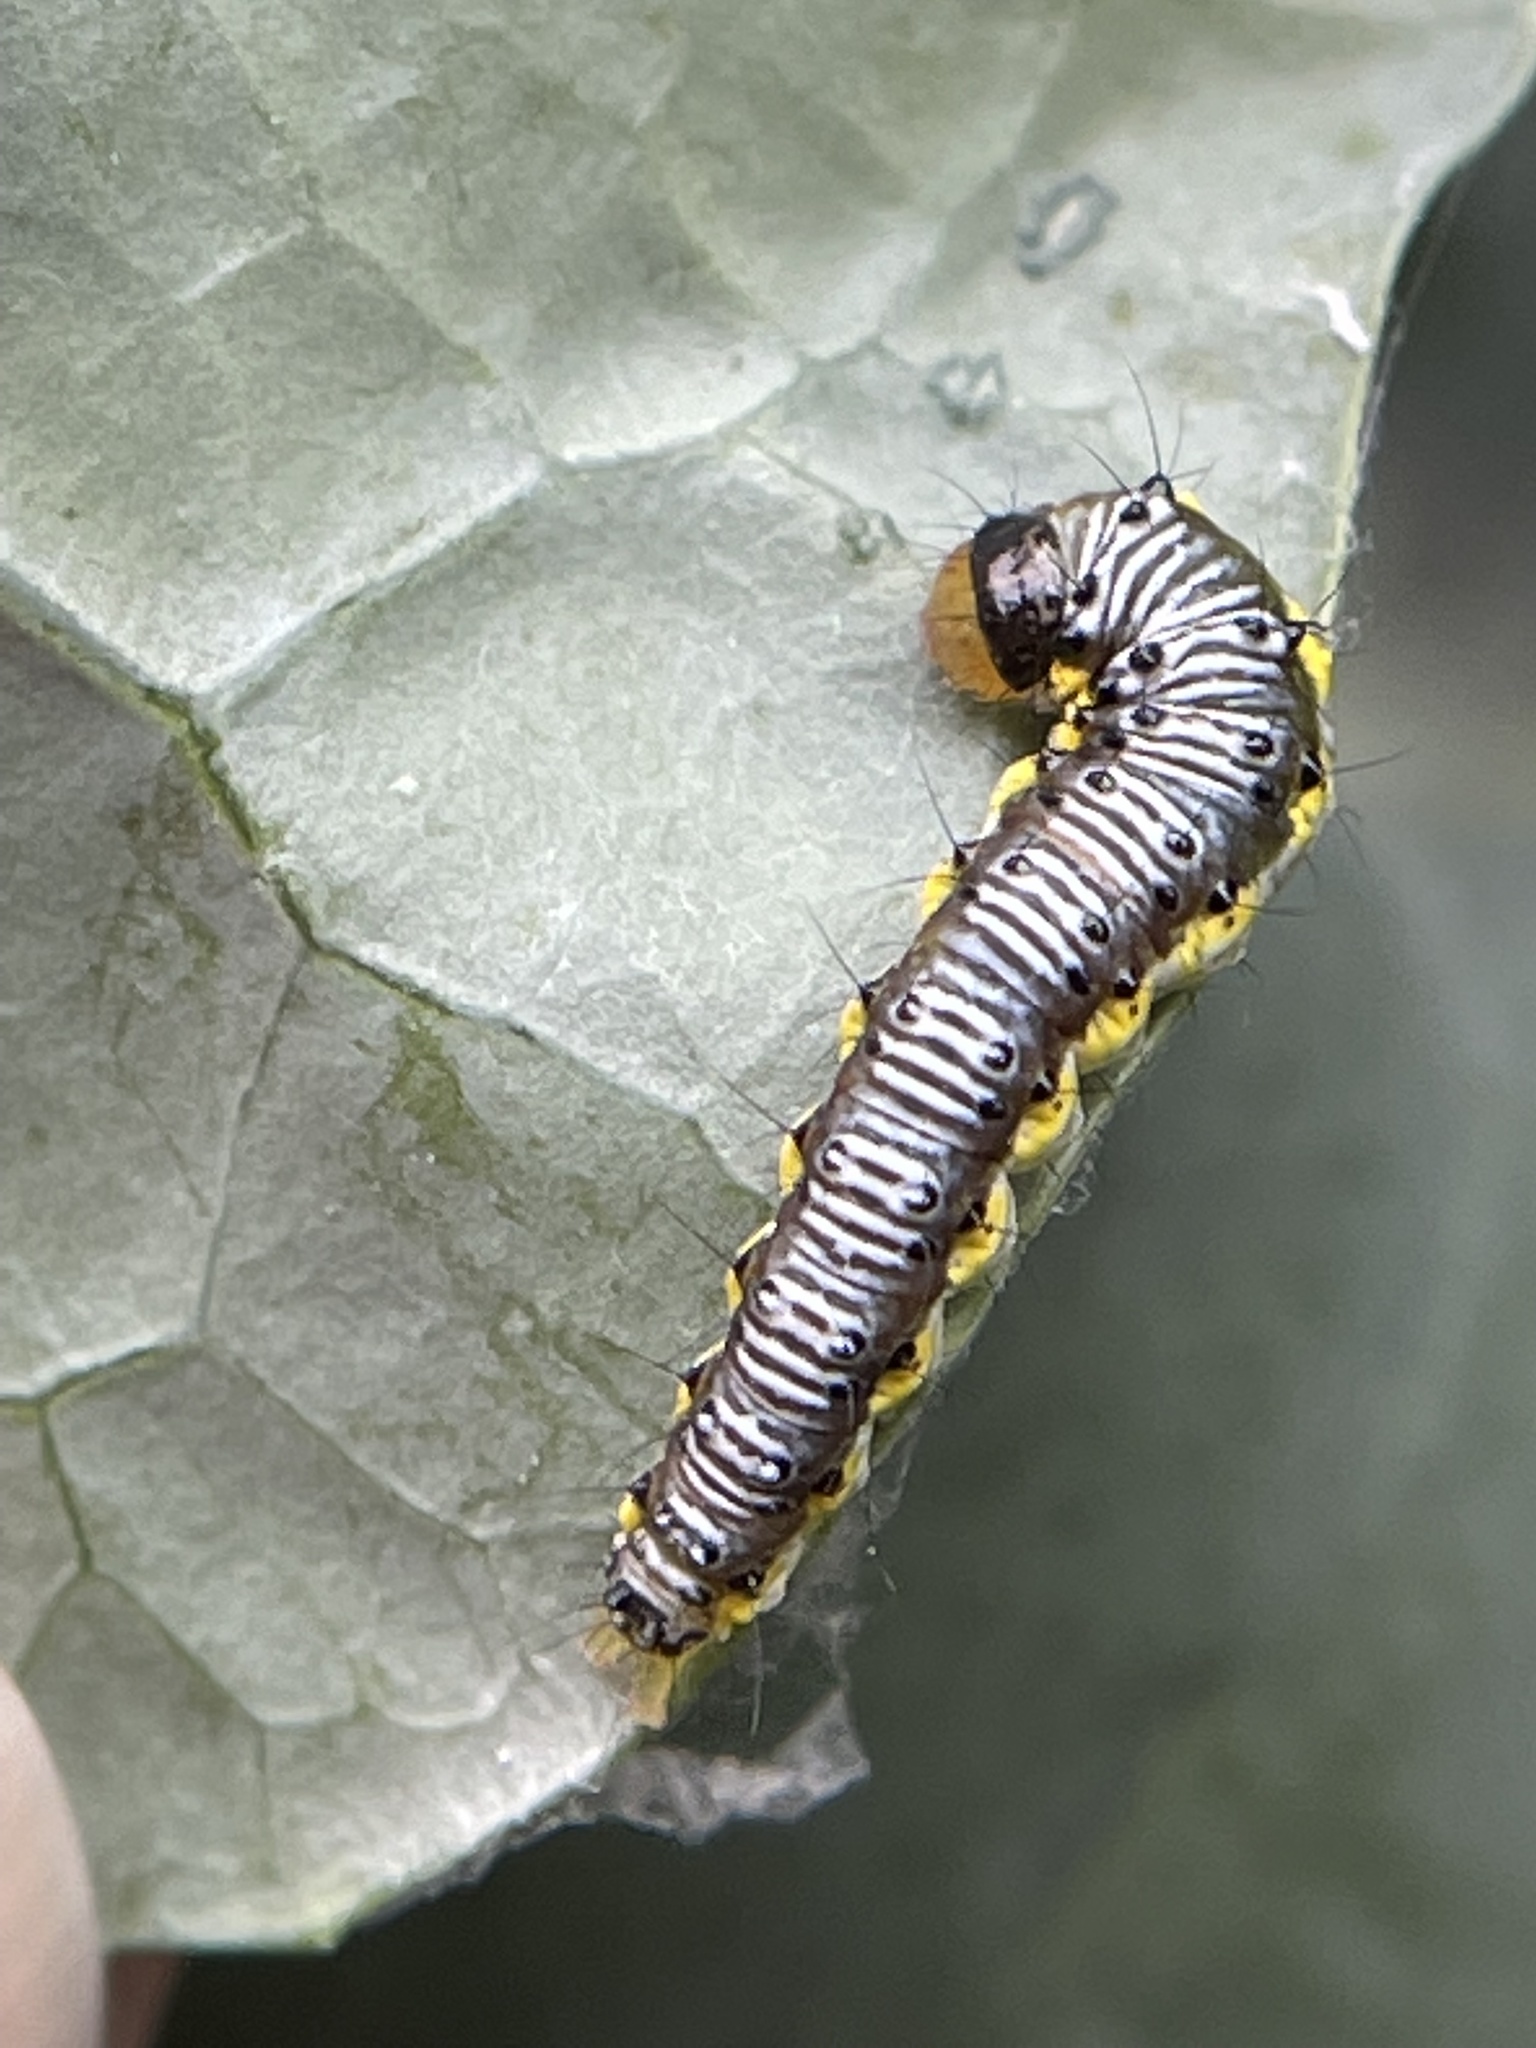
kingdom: Animalia
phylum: Arthropoda
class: Insecta
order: Lepidoptera
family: Crambidae
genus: Evergestis
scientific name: Evergestis rimosalis
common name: Cross-striped cabbageworm moth
